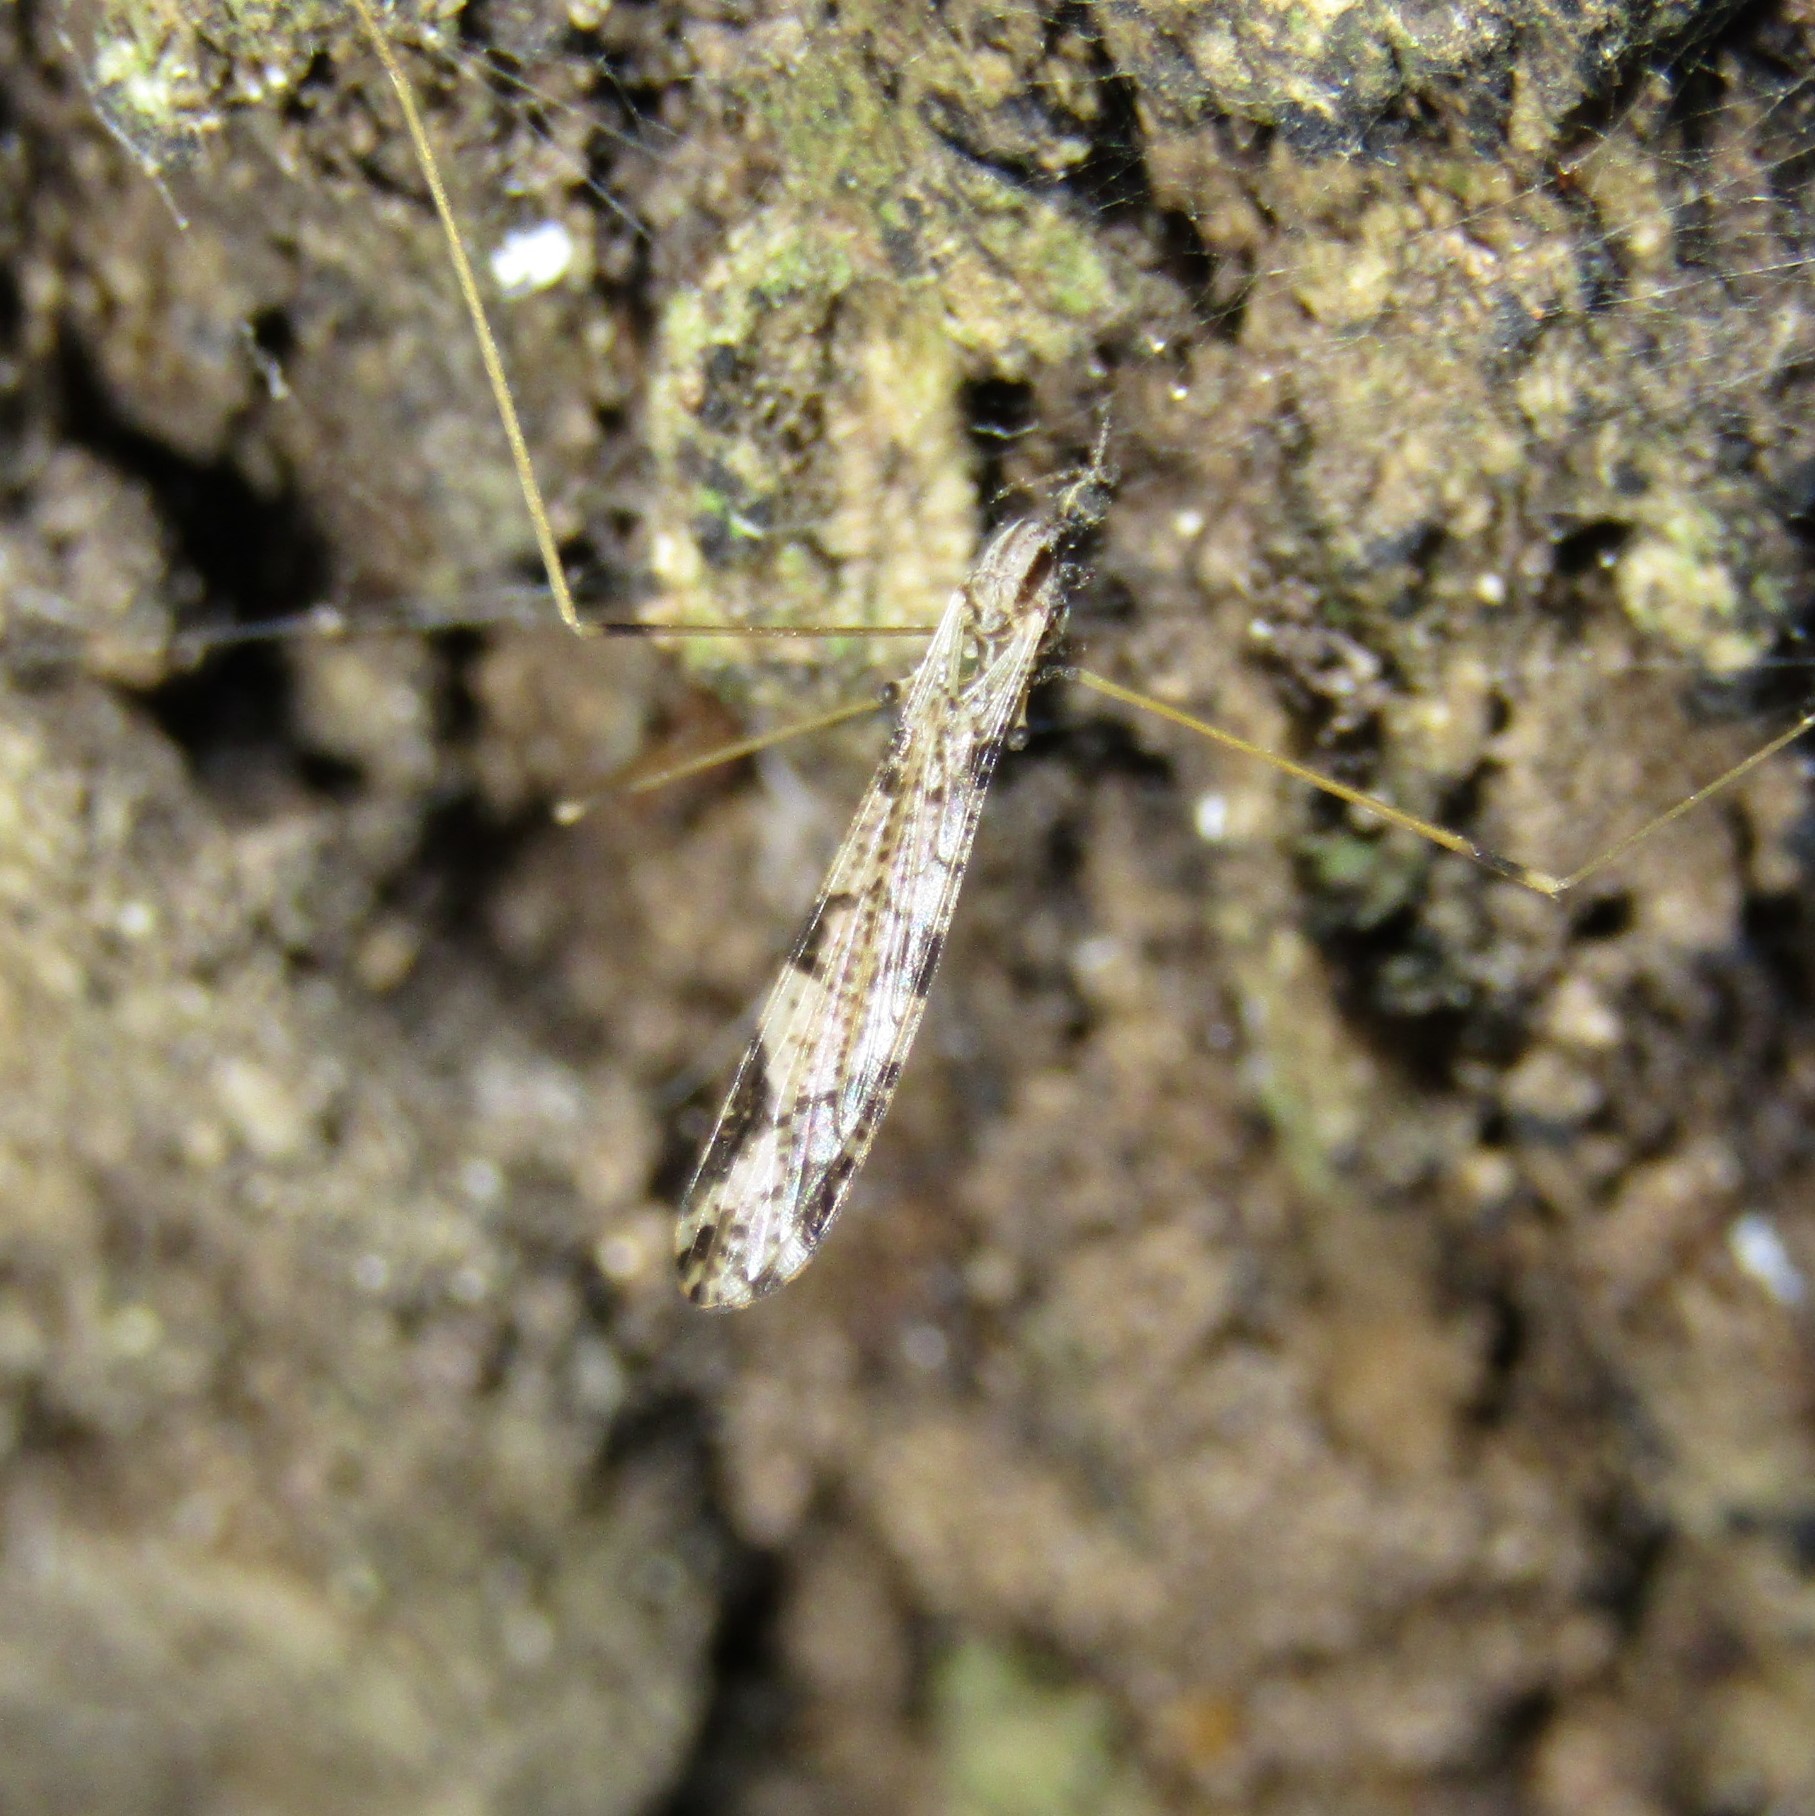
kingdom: Animalia
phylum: Arthropoda
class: Insecta
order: Diptera
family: Limoniidae
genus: Discobola
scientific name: Discobola striata
